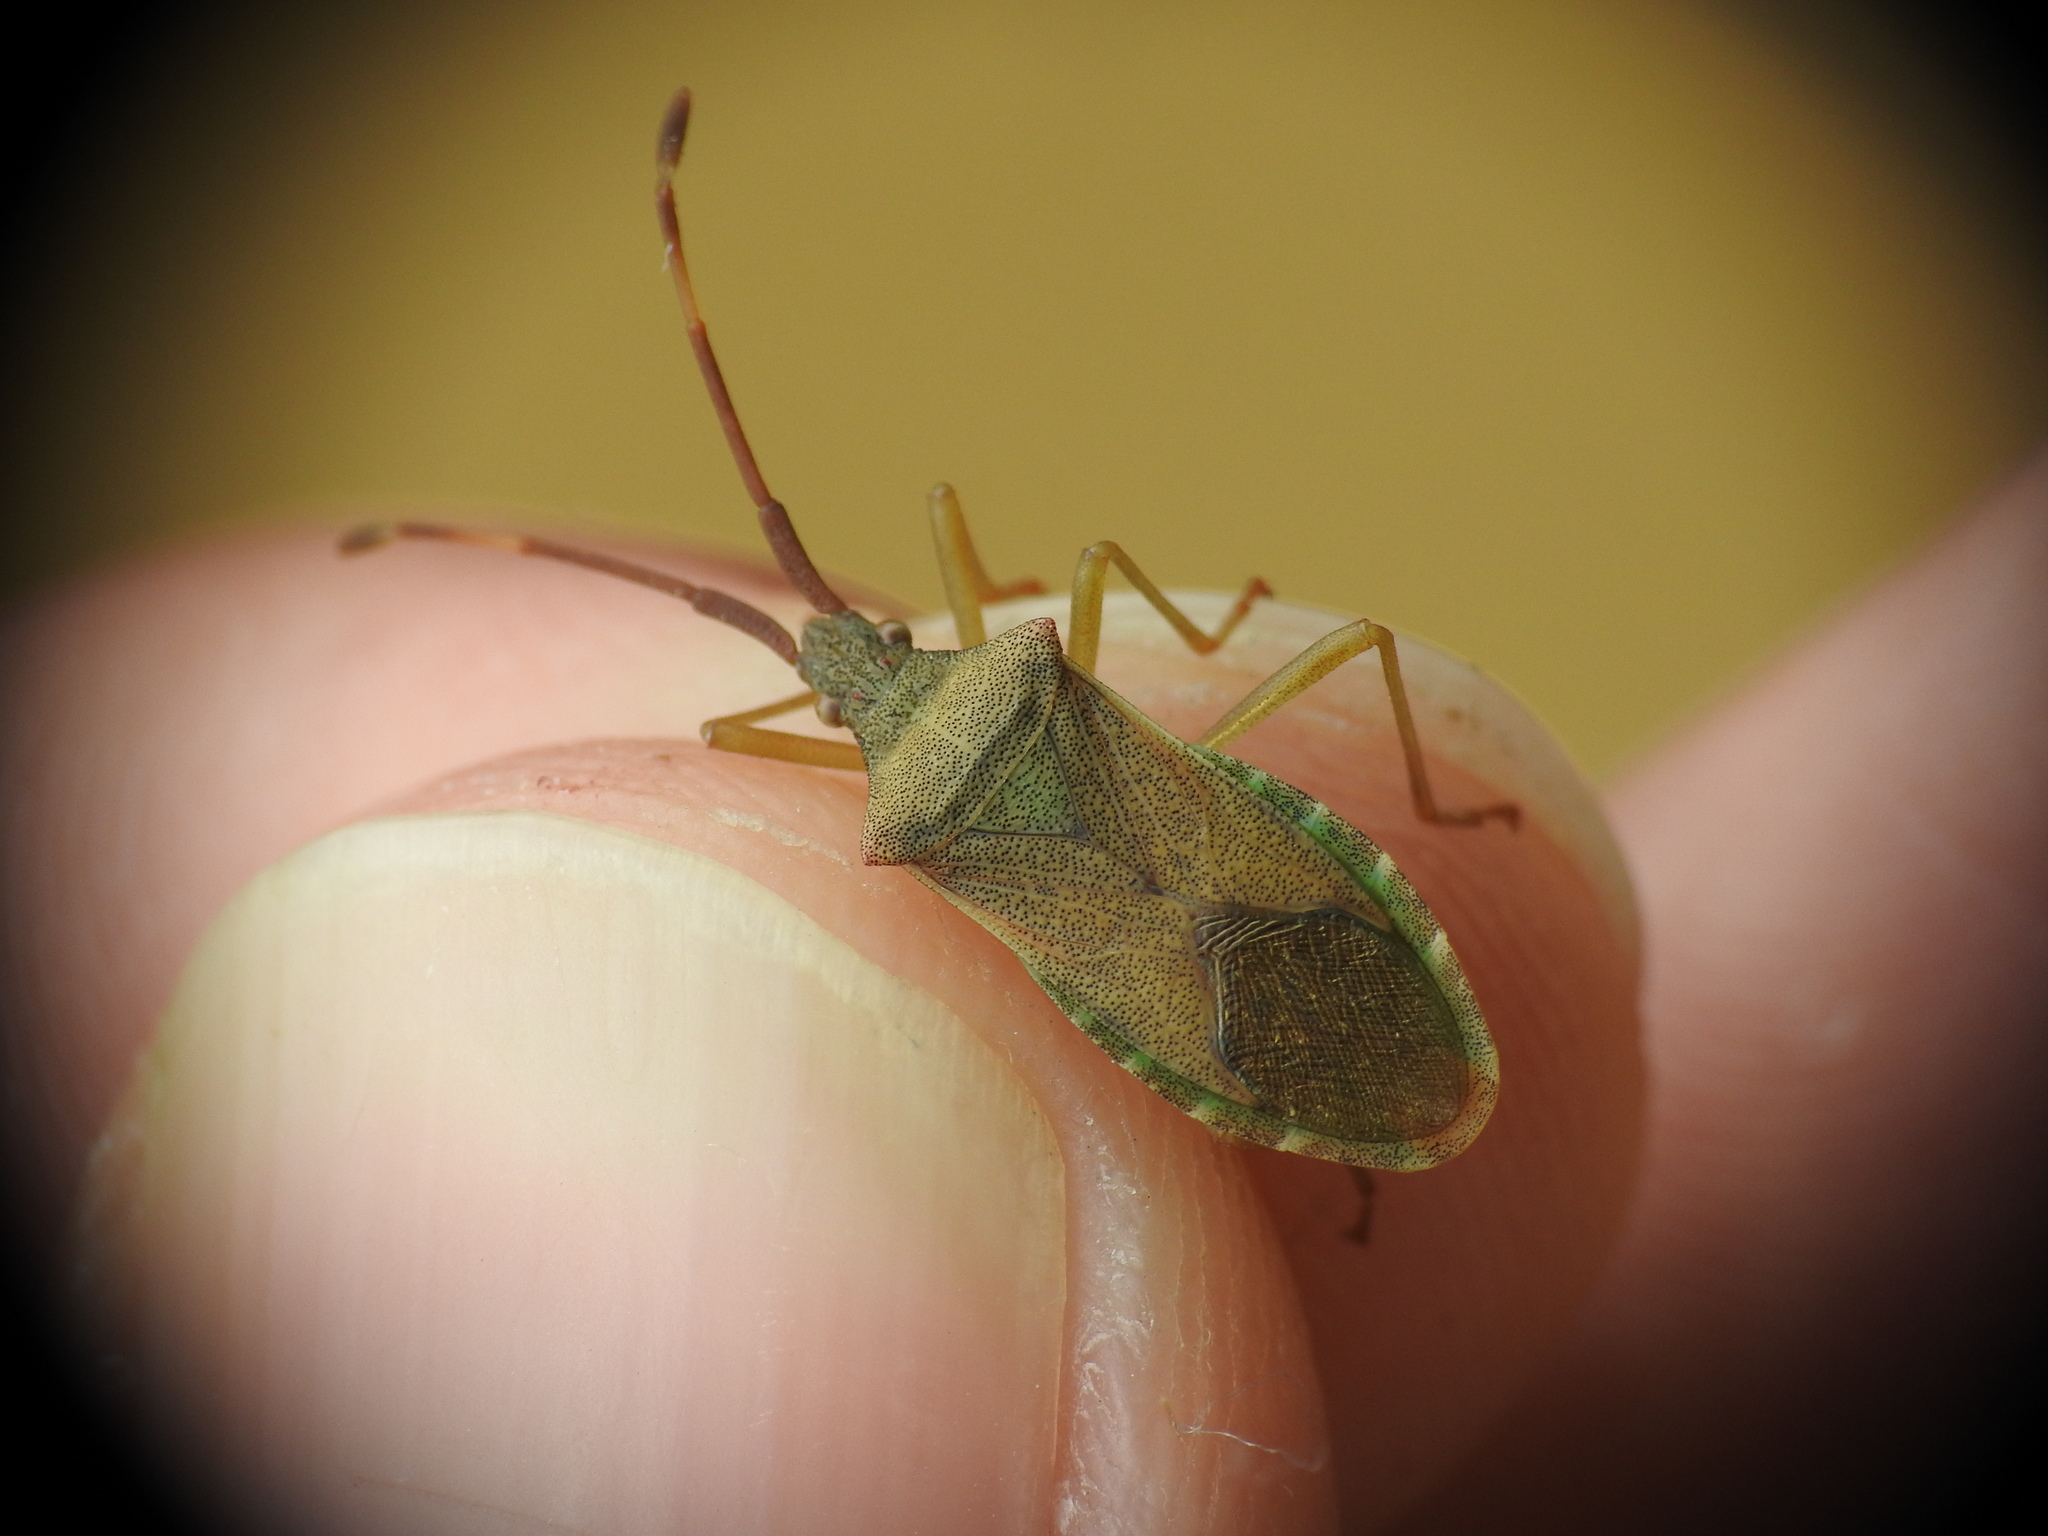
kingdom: Animalia
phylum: Arthropoda
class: Insecta
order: Hemiptera
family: Coreidae
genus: Gonocerus
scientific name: Gonocerus acuteangulatus
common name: Box bug
